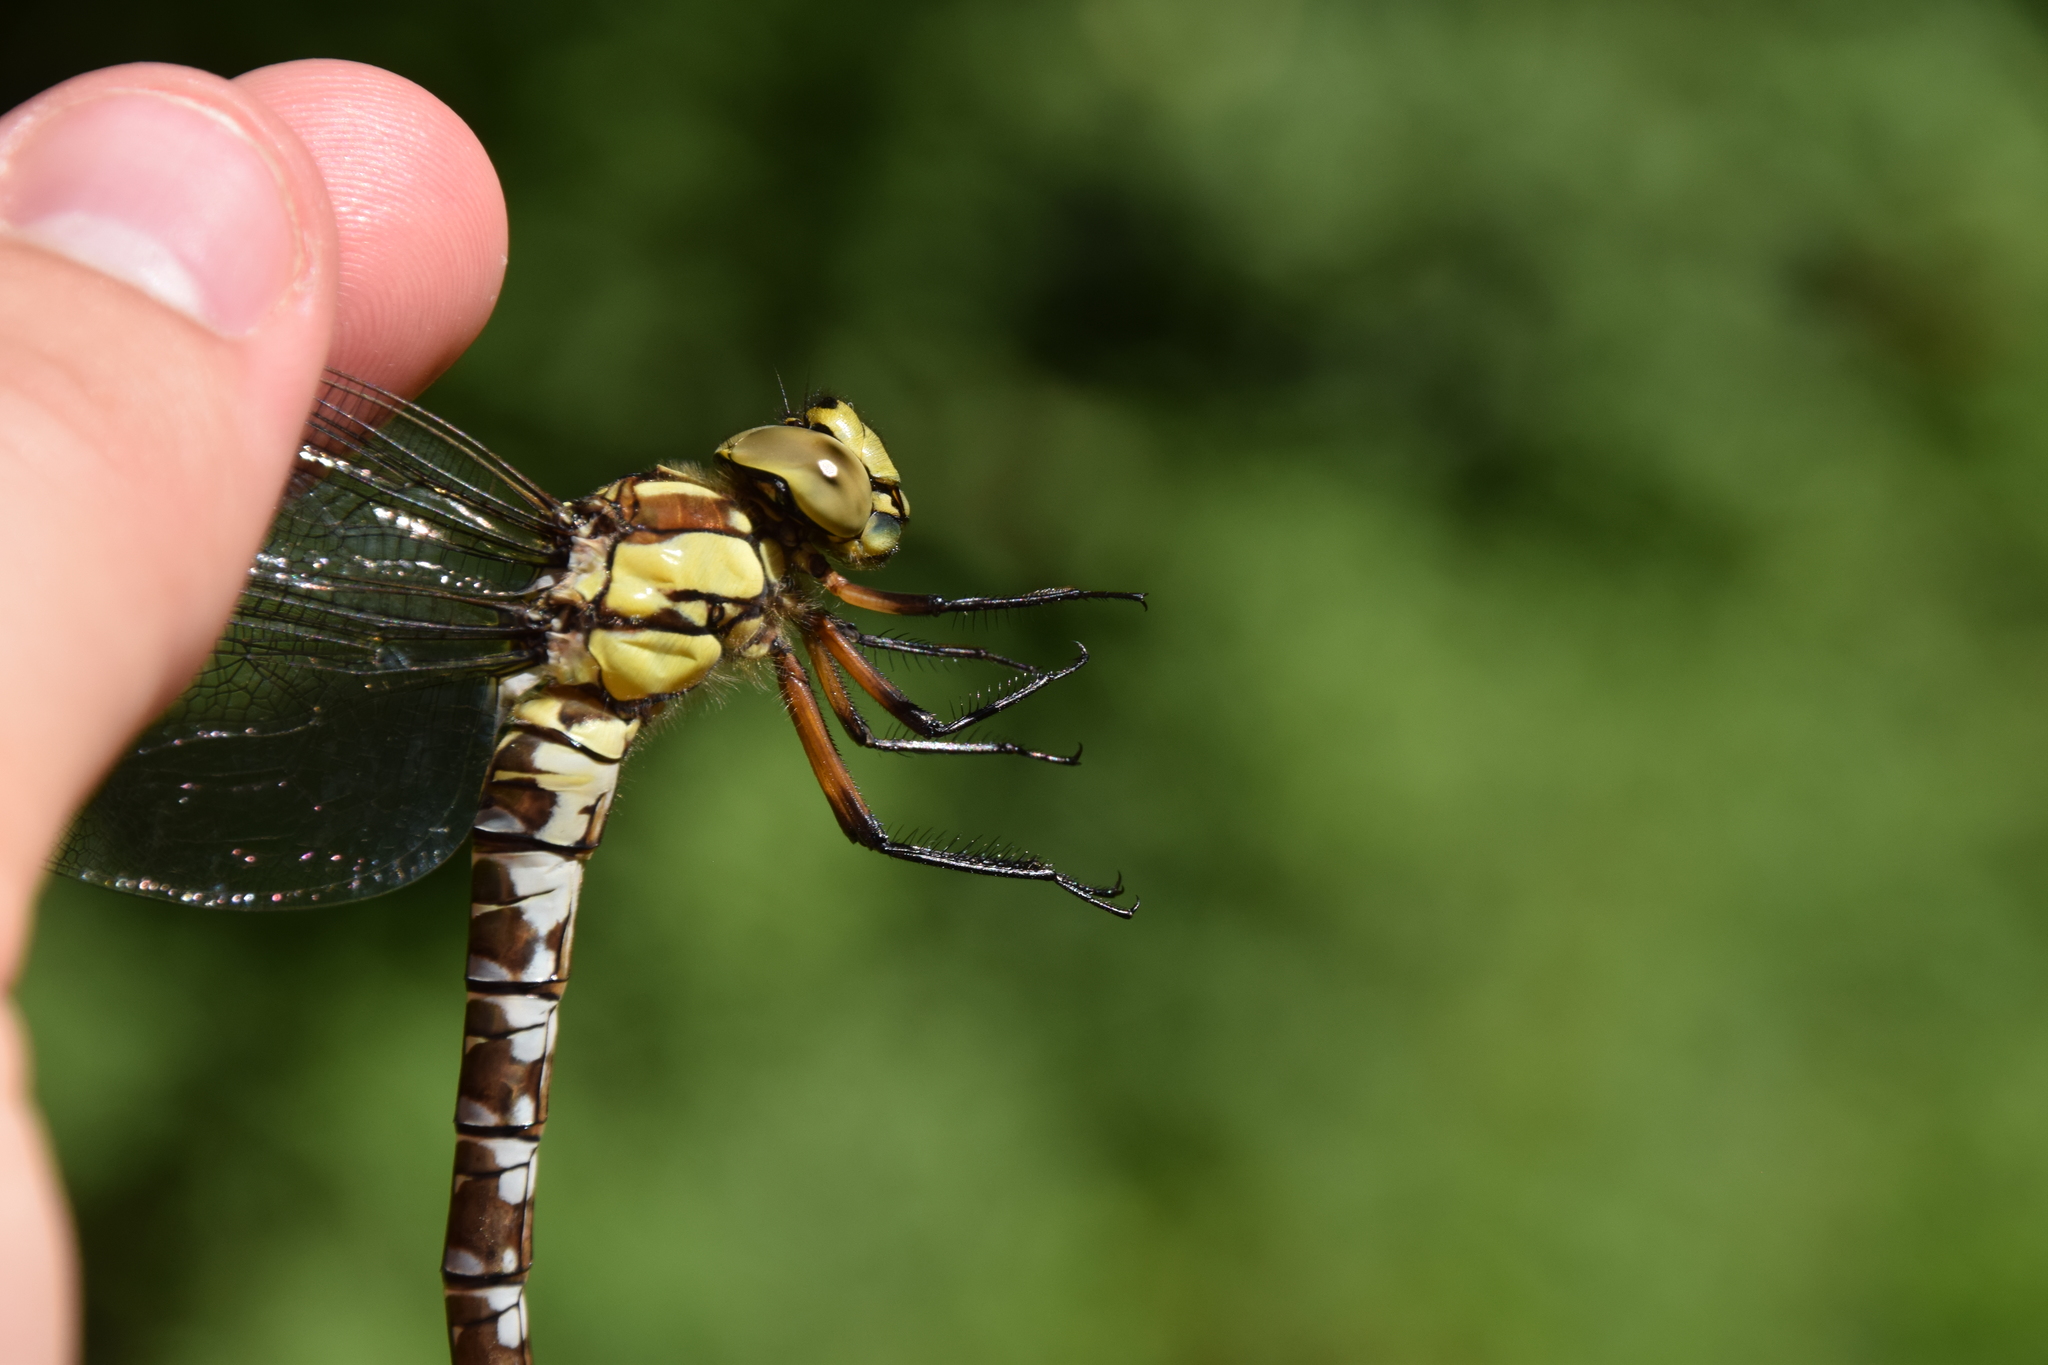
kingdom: Animalia
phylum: Arthropoda
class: Insecta
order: Odonata
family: Aeshnidae
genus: Aeshna
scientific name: Aeshna cyanea
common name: Southern hawker
